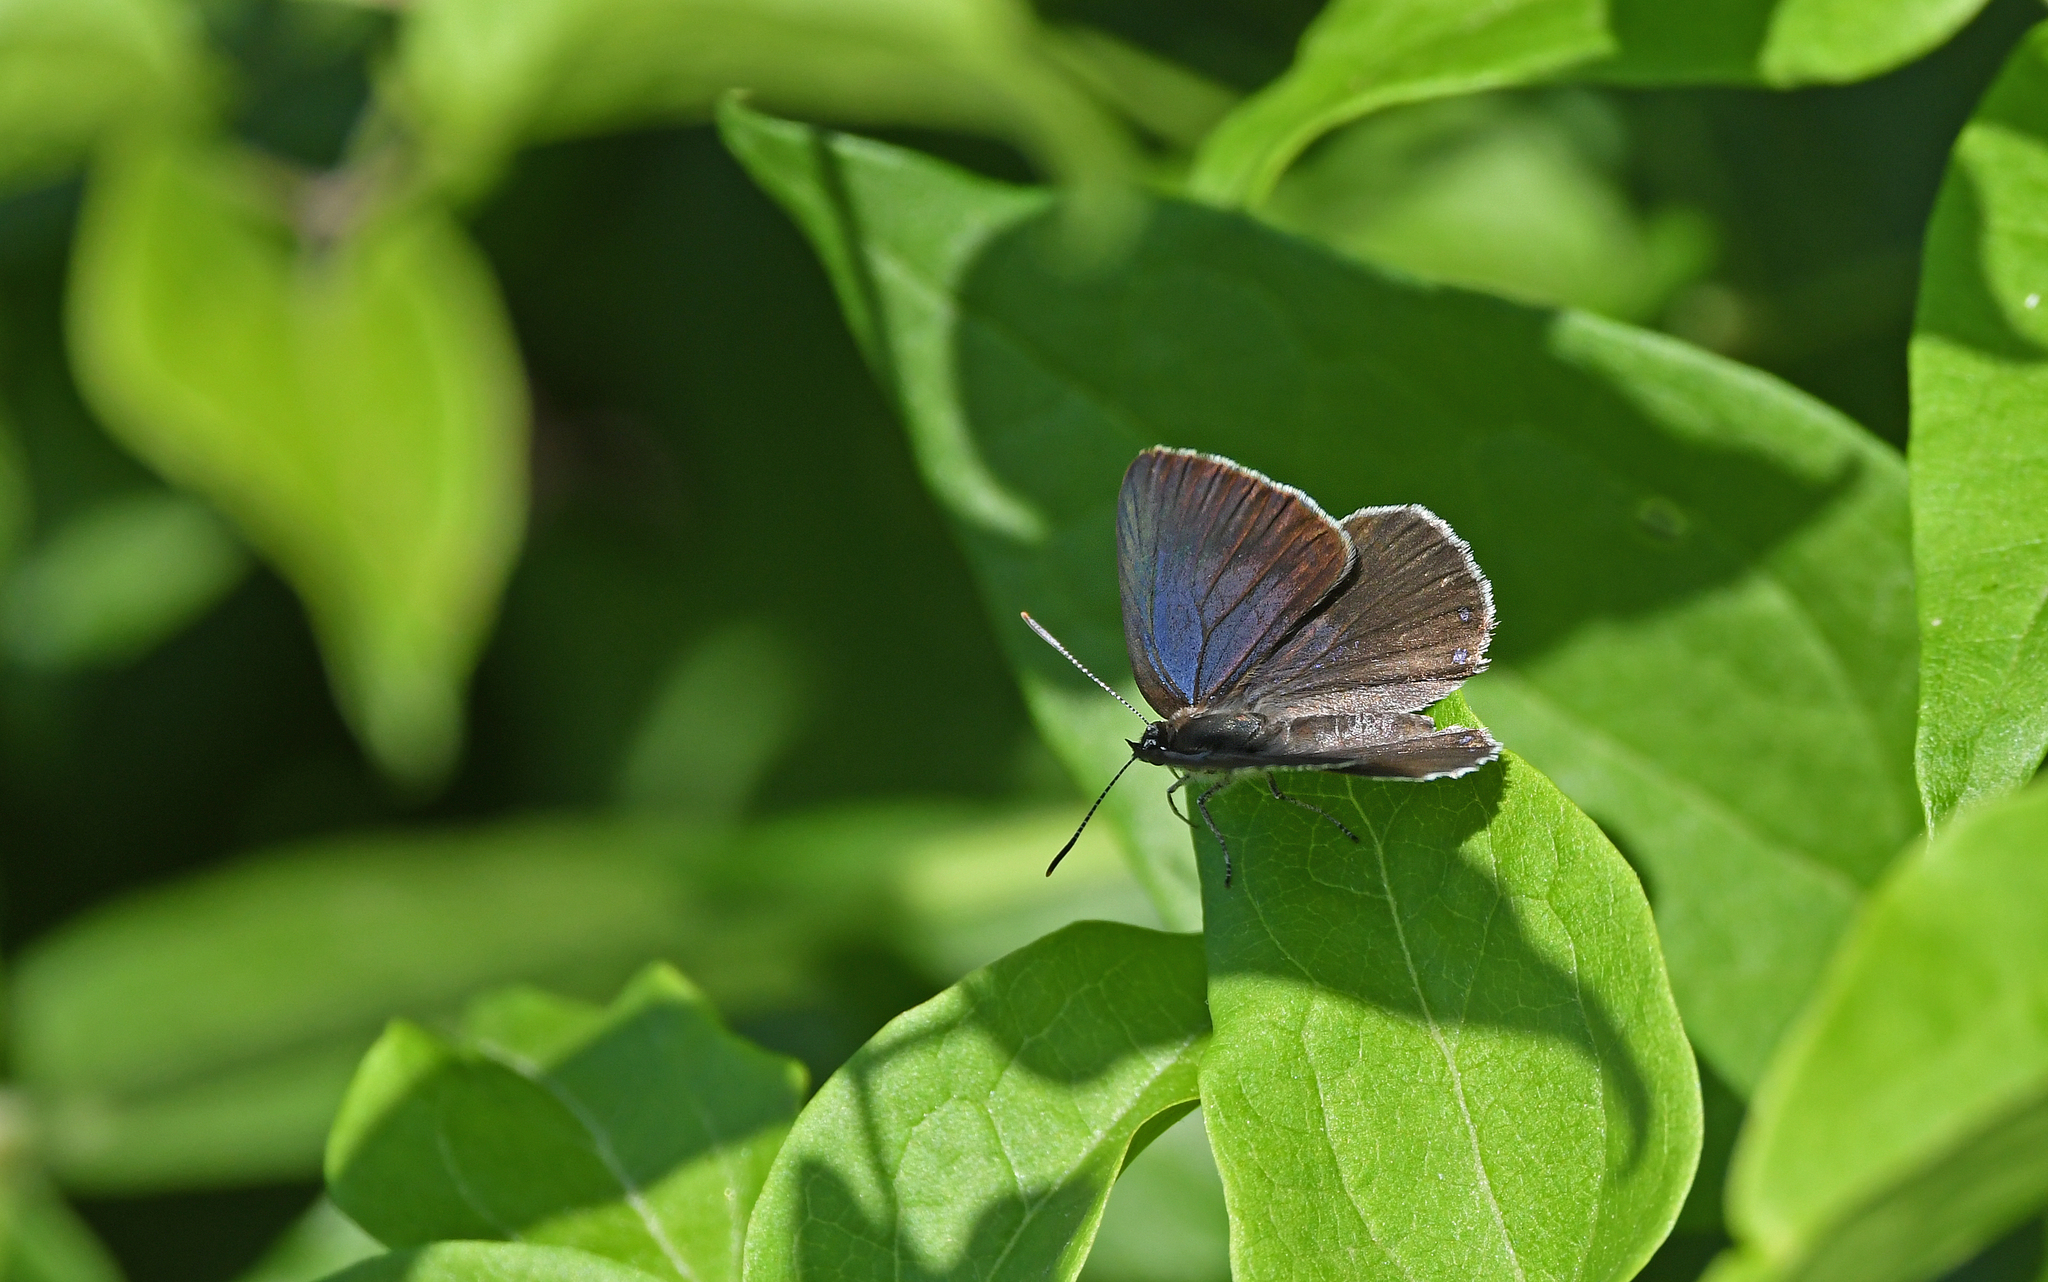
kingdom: Animalia
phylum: Arthropoda
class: Insecta
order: Lepidoptera
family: Lycaenidae
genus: Laeosopis
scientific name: Laeosopis roboris
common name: Spanish purple hairstreak
